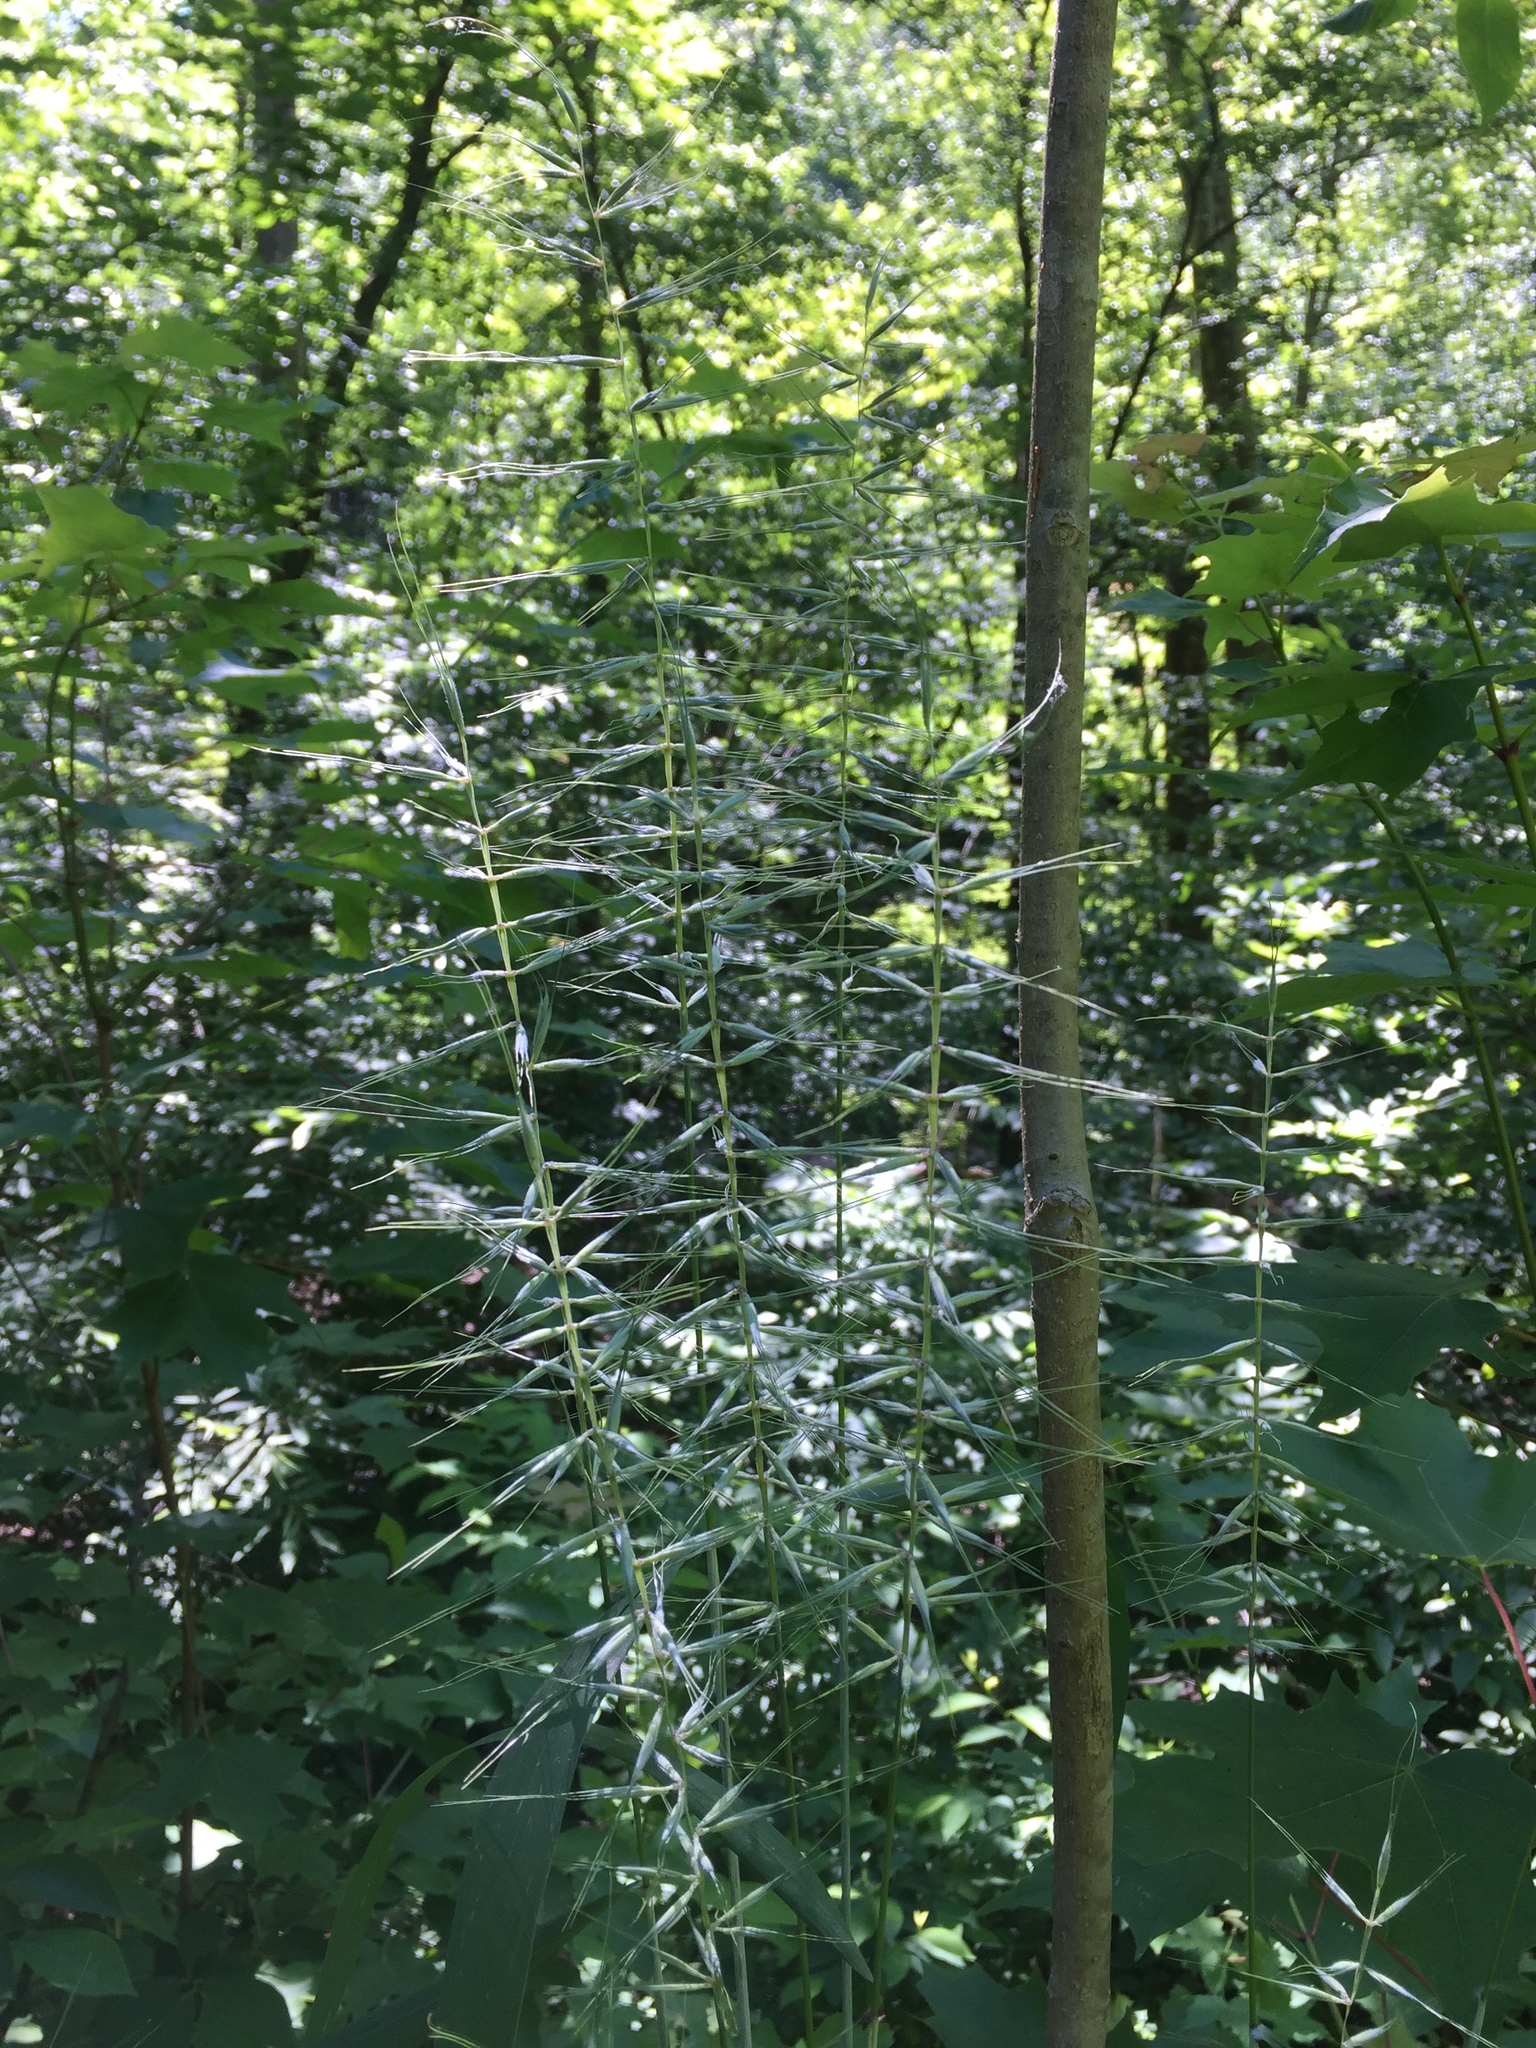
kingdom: Plantae
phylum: Tracheophyta
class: Liliopsida
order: Poales
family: Poaceae
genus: Elymus
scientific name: Elymus hystrix
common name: Bottlebrush grass
